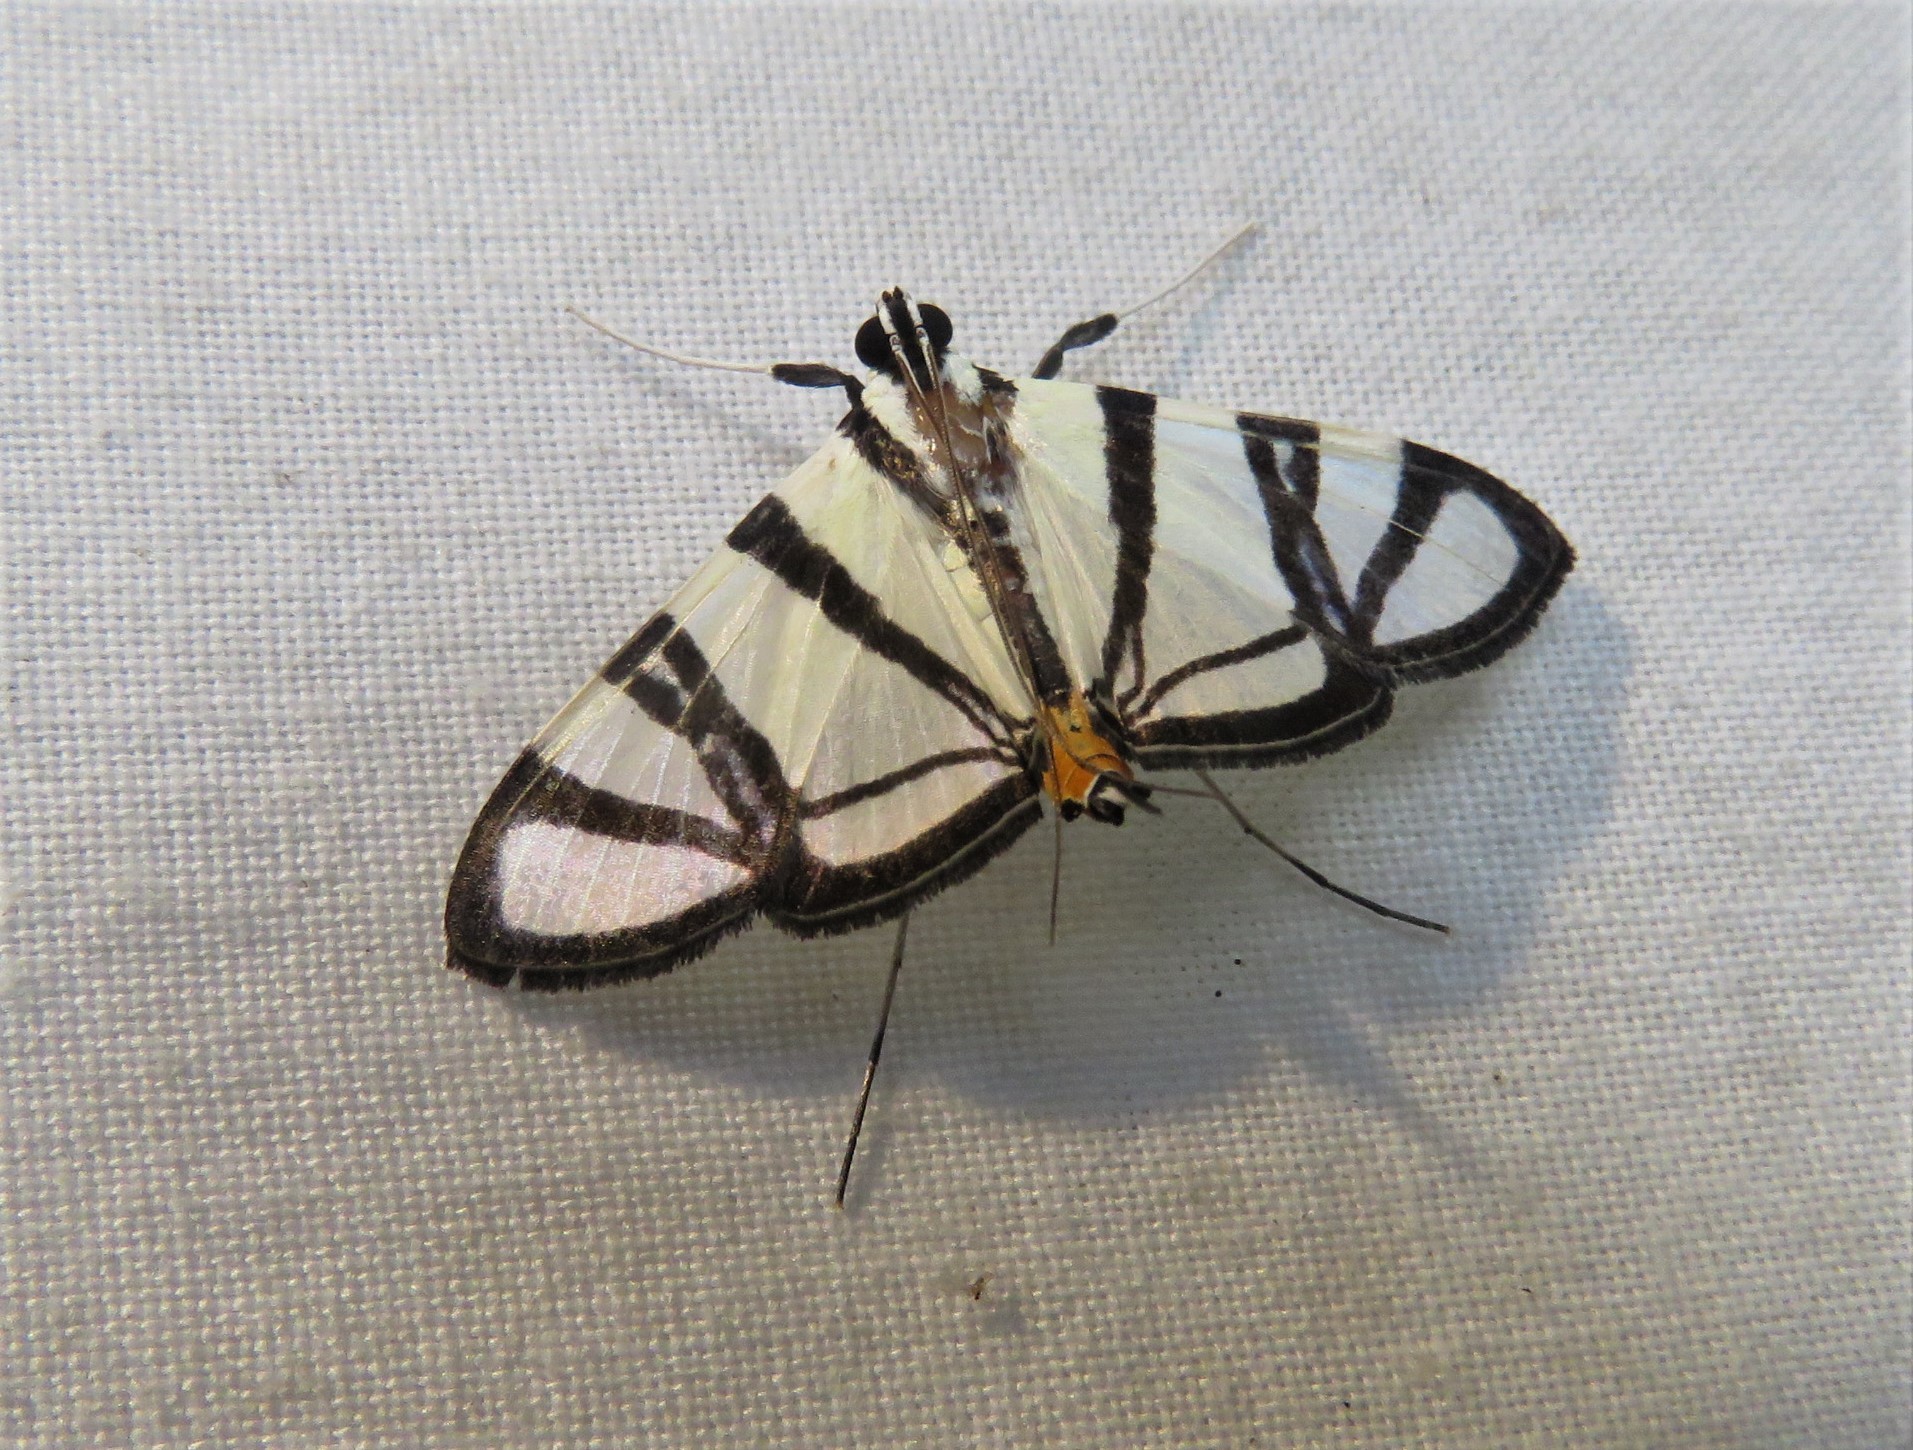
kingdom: Animalia
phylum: Arthropoda
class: Insecta
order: Lepidoptera
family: Crambidae
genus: Conchylodes
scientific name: Conchylodes nolckenialis
